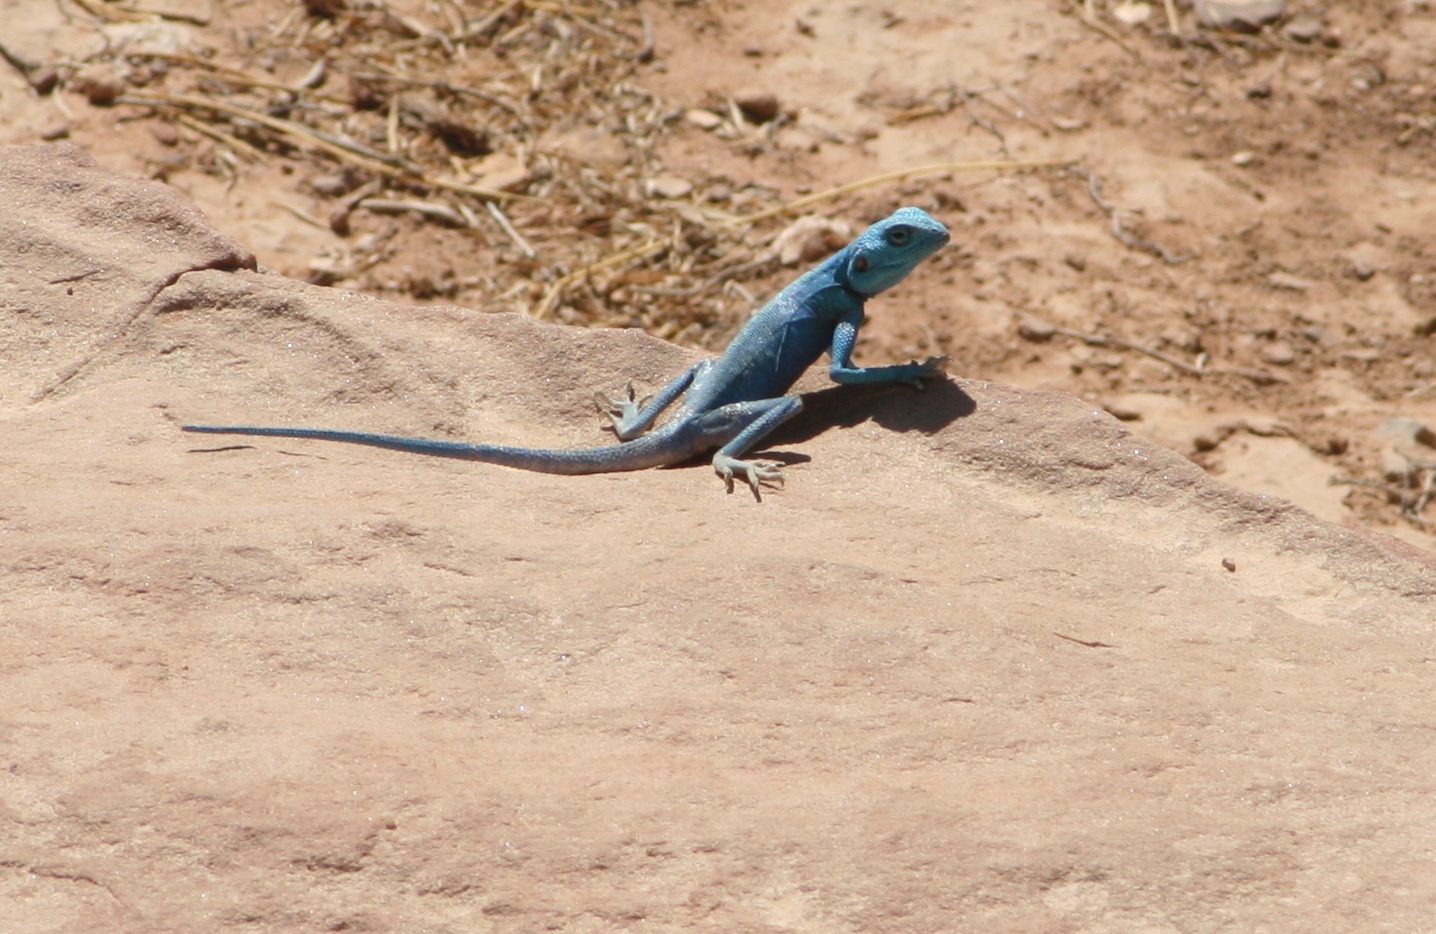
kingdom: Animalia
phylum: Chordata
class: Squamata
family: Agamidae
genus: Pseudotrapelus
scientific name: Pseudotrapelus sinaitus
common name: Sinai agama
